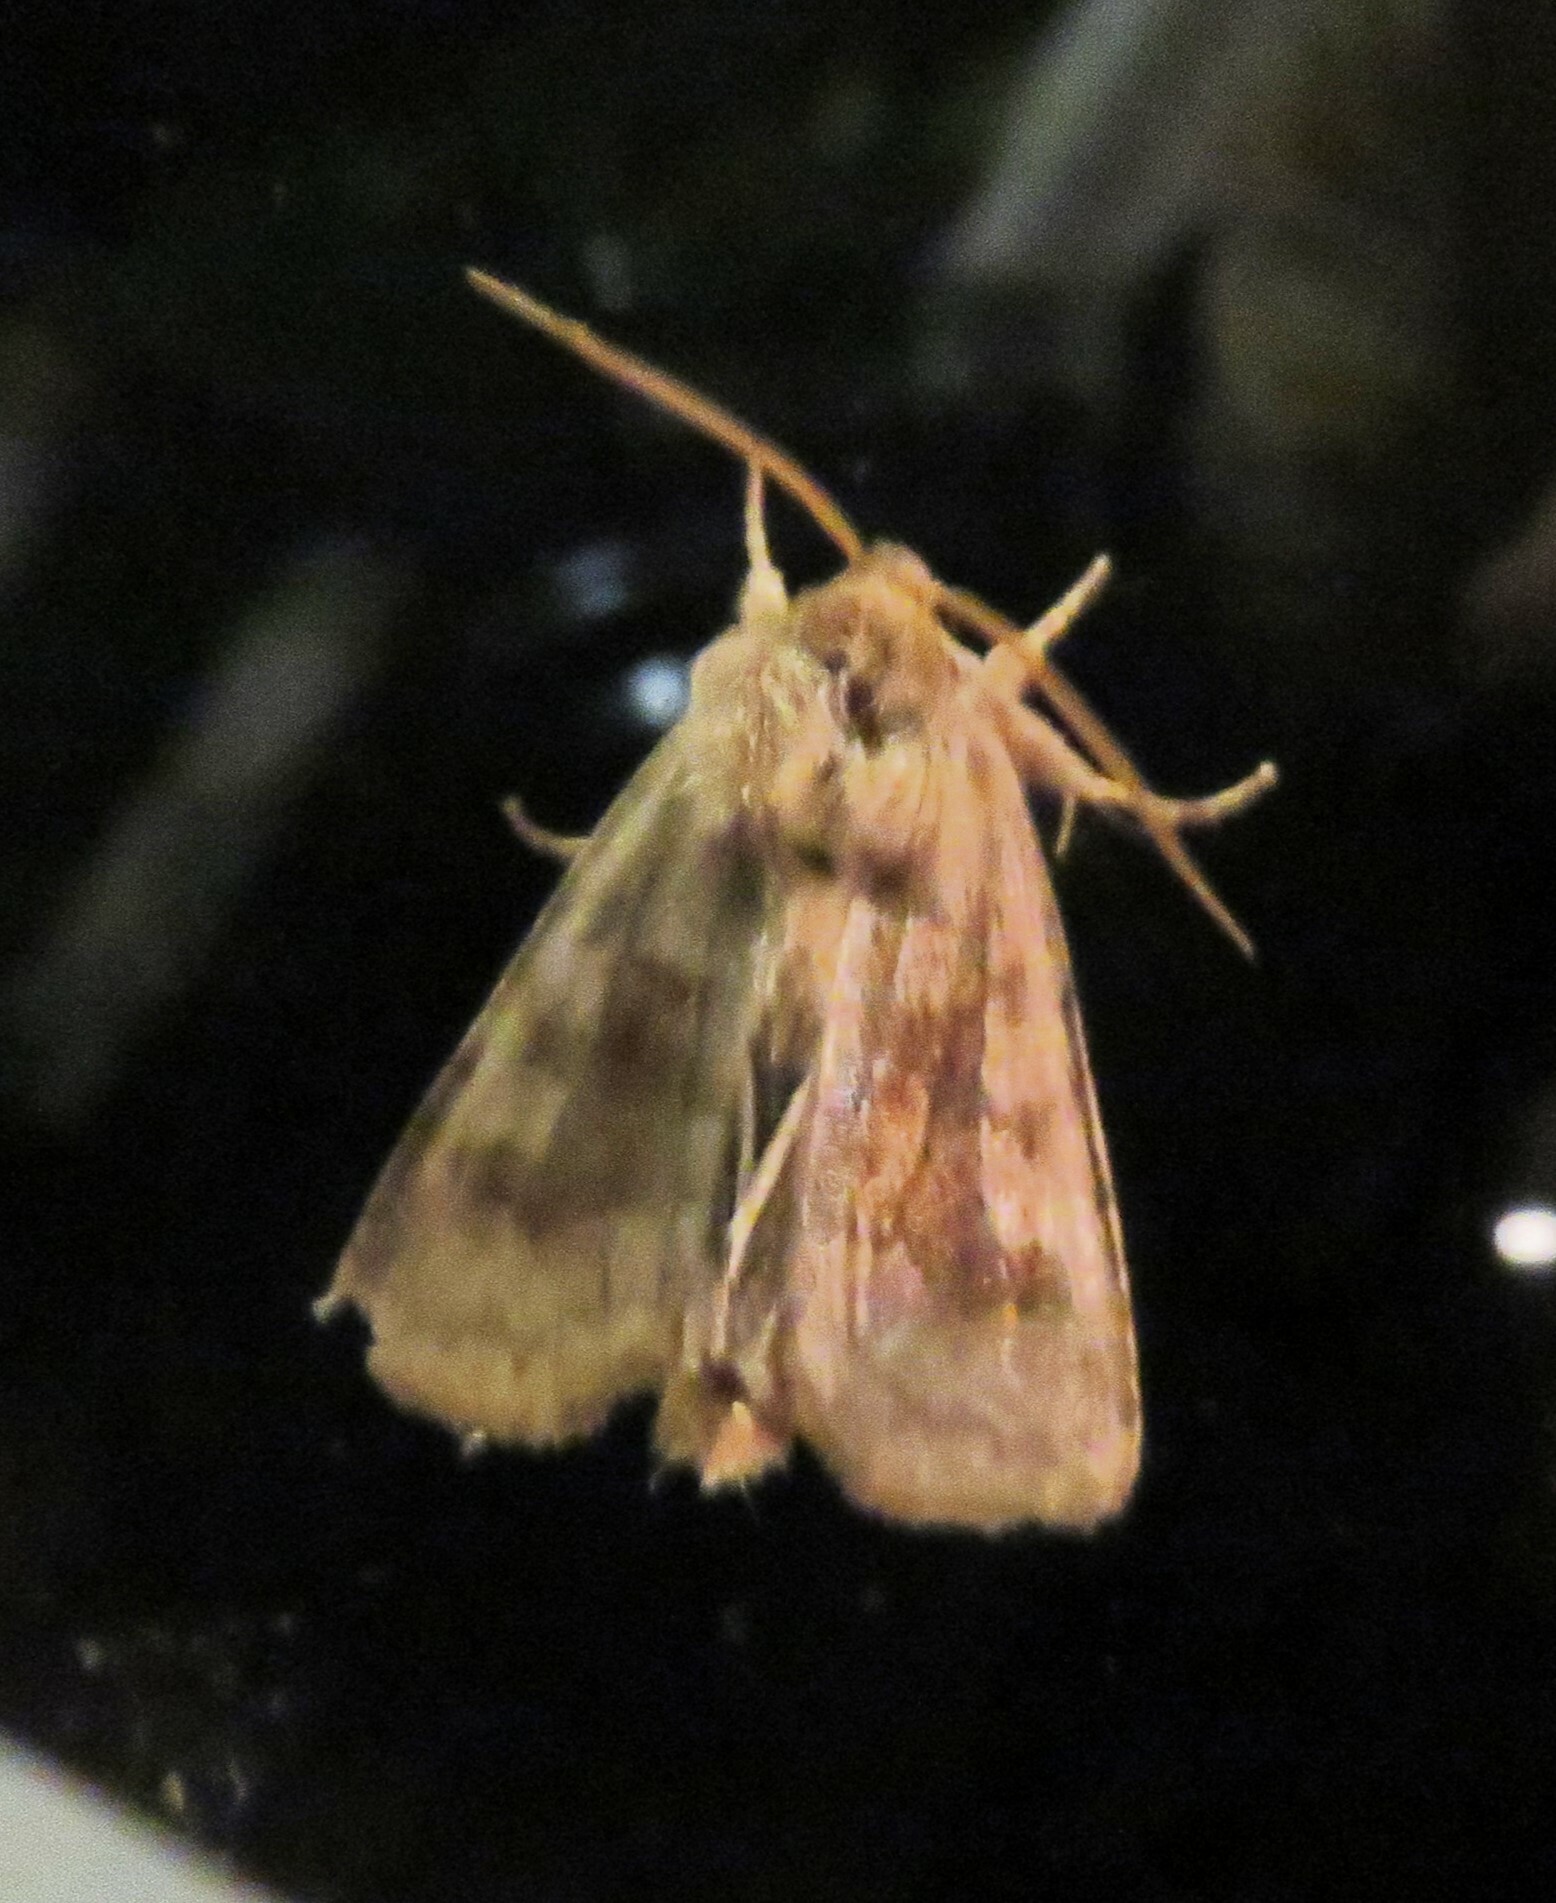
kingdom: Animalia
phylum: Arthropoda
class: Insecta
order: Lepidoptera
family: Noctuidae
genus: Nephelodes
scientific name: Nephelodes minians
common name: Bronzed cutworm
